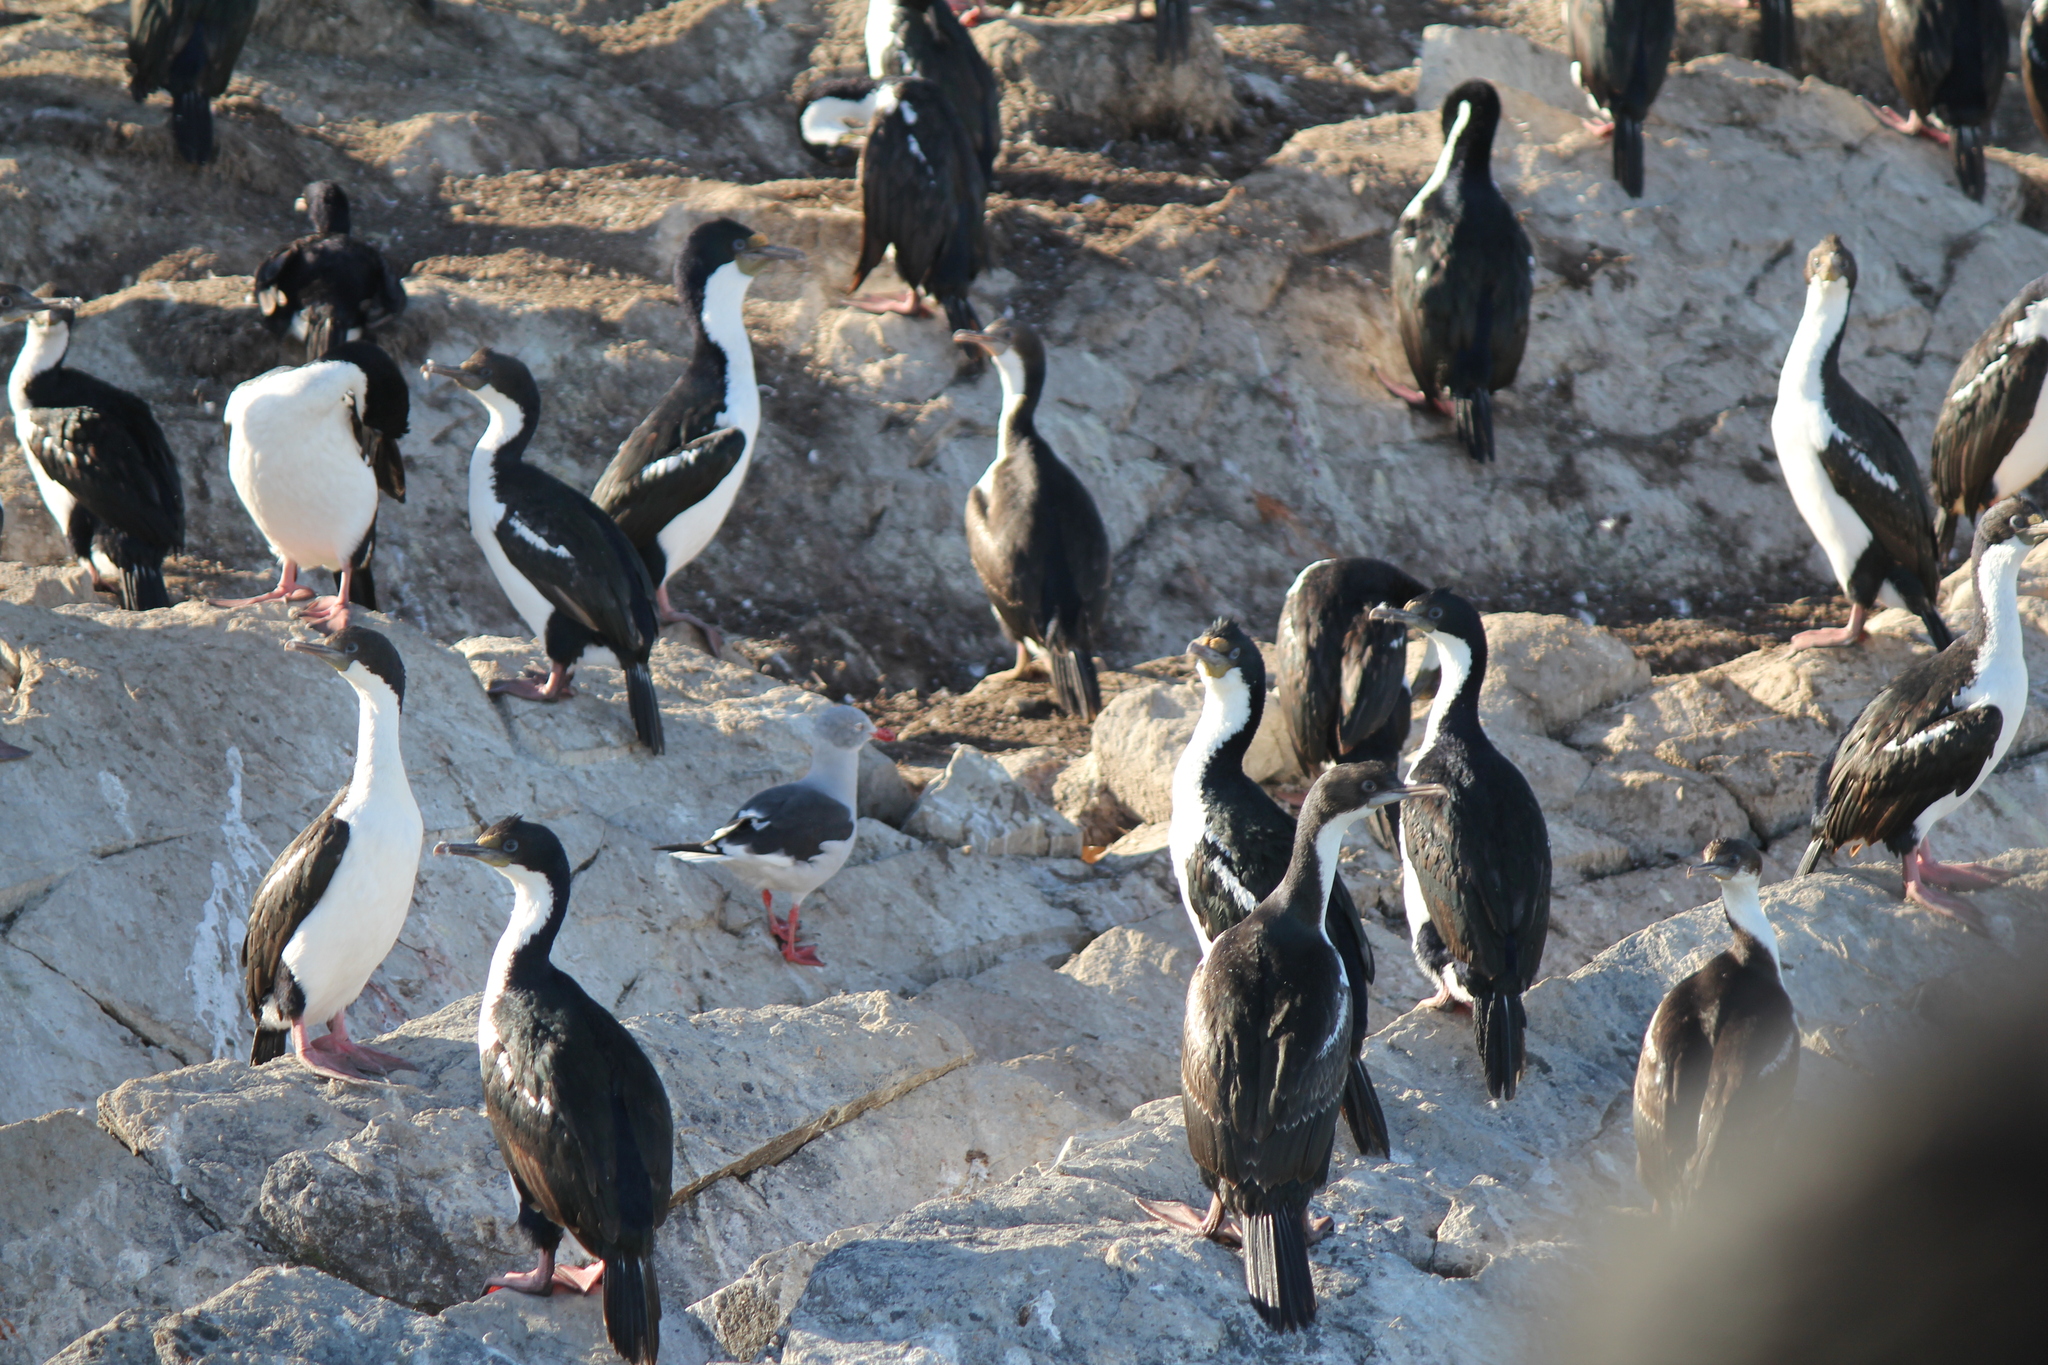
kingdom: Animalia
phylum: Chordata
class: Aves
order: Suliformes
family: Phalacrocoracidae
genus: Leucocarbo
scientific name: Leucocarbo atriceps
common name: Imperial shag
